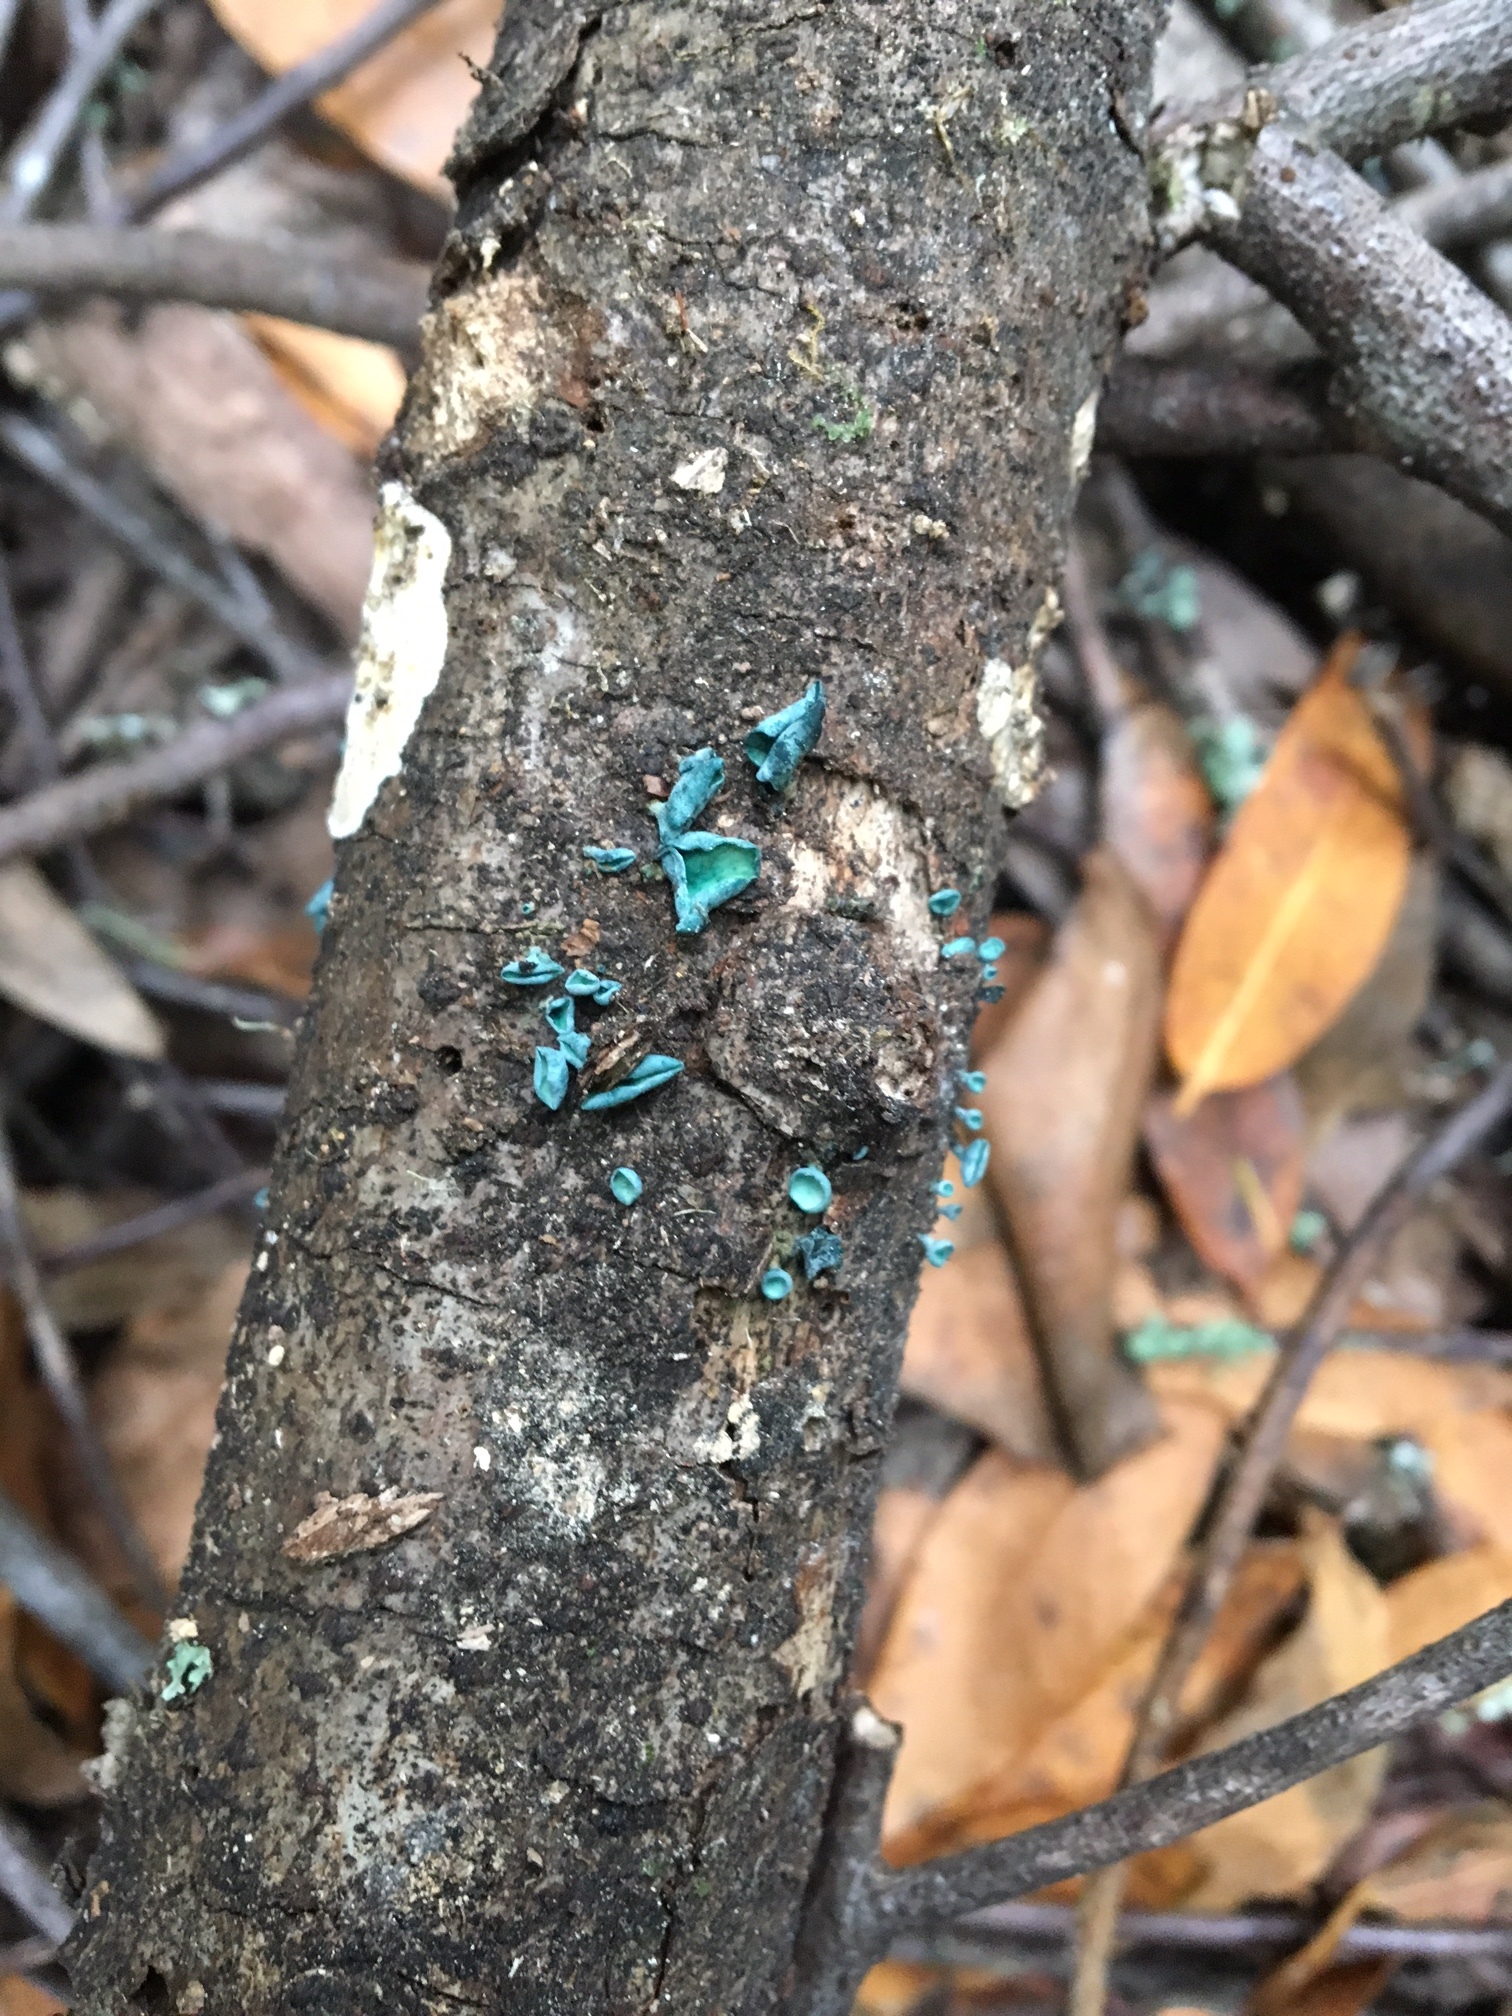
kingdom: Fungi
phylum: Ascomycota
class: Leotiomycetes
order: Helotiales
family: Chlorociboriaceae
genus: Chlorociboria
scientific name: Chlorociboria aeruginascens
